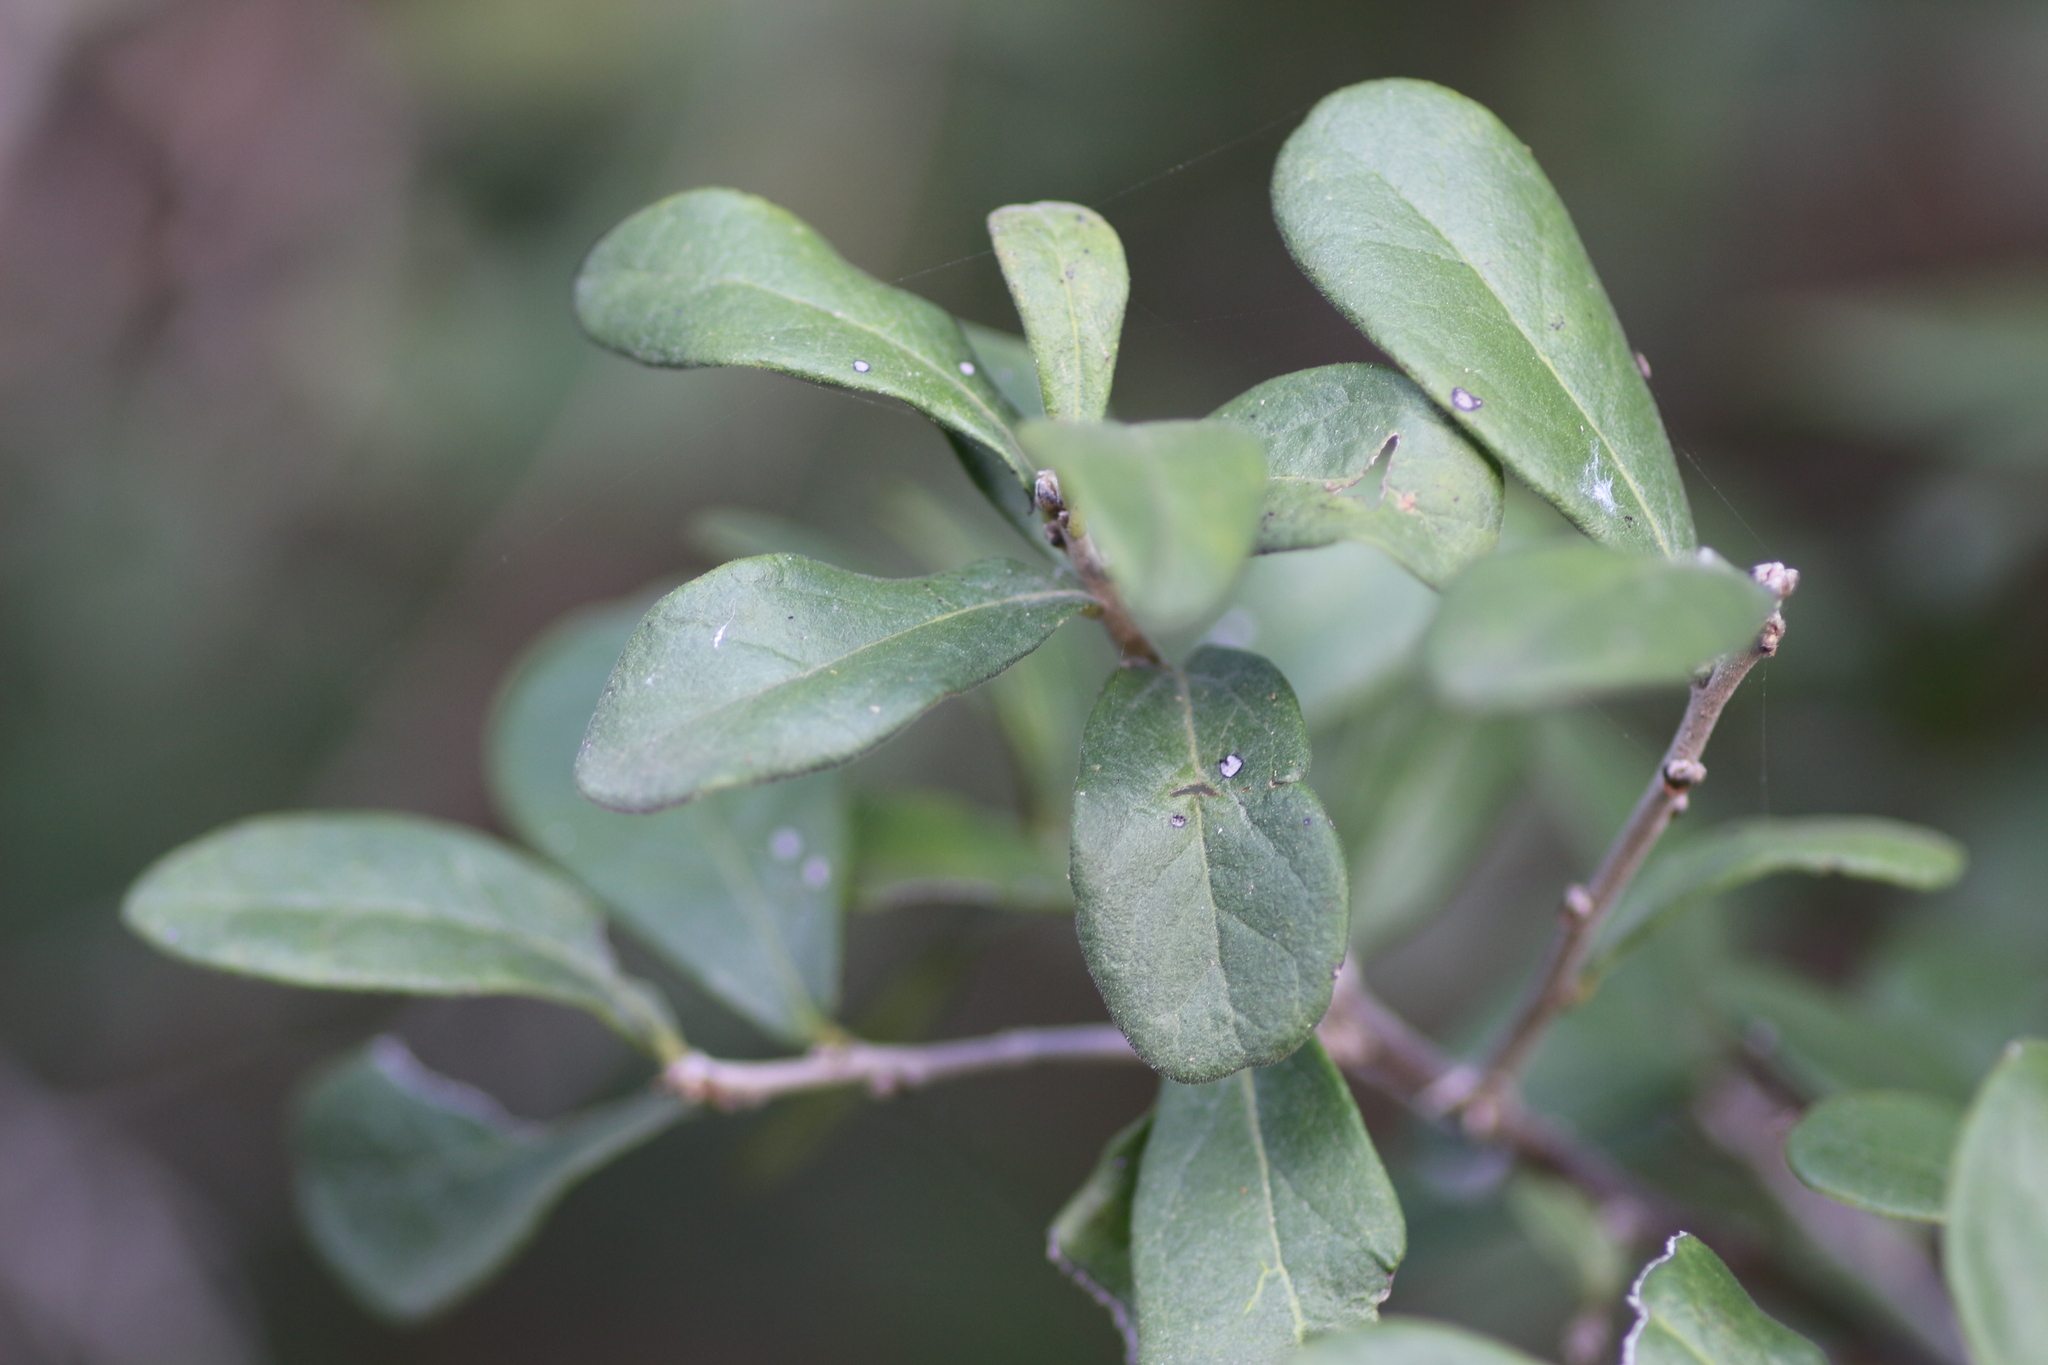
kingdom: Plantae
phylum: Tracheophyta
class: Magnoliopsida
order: Ericales
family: Ebenaceae
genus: Diospyros
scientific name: Diospyros texana
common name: Texas persimmon
